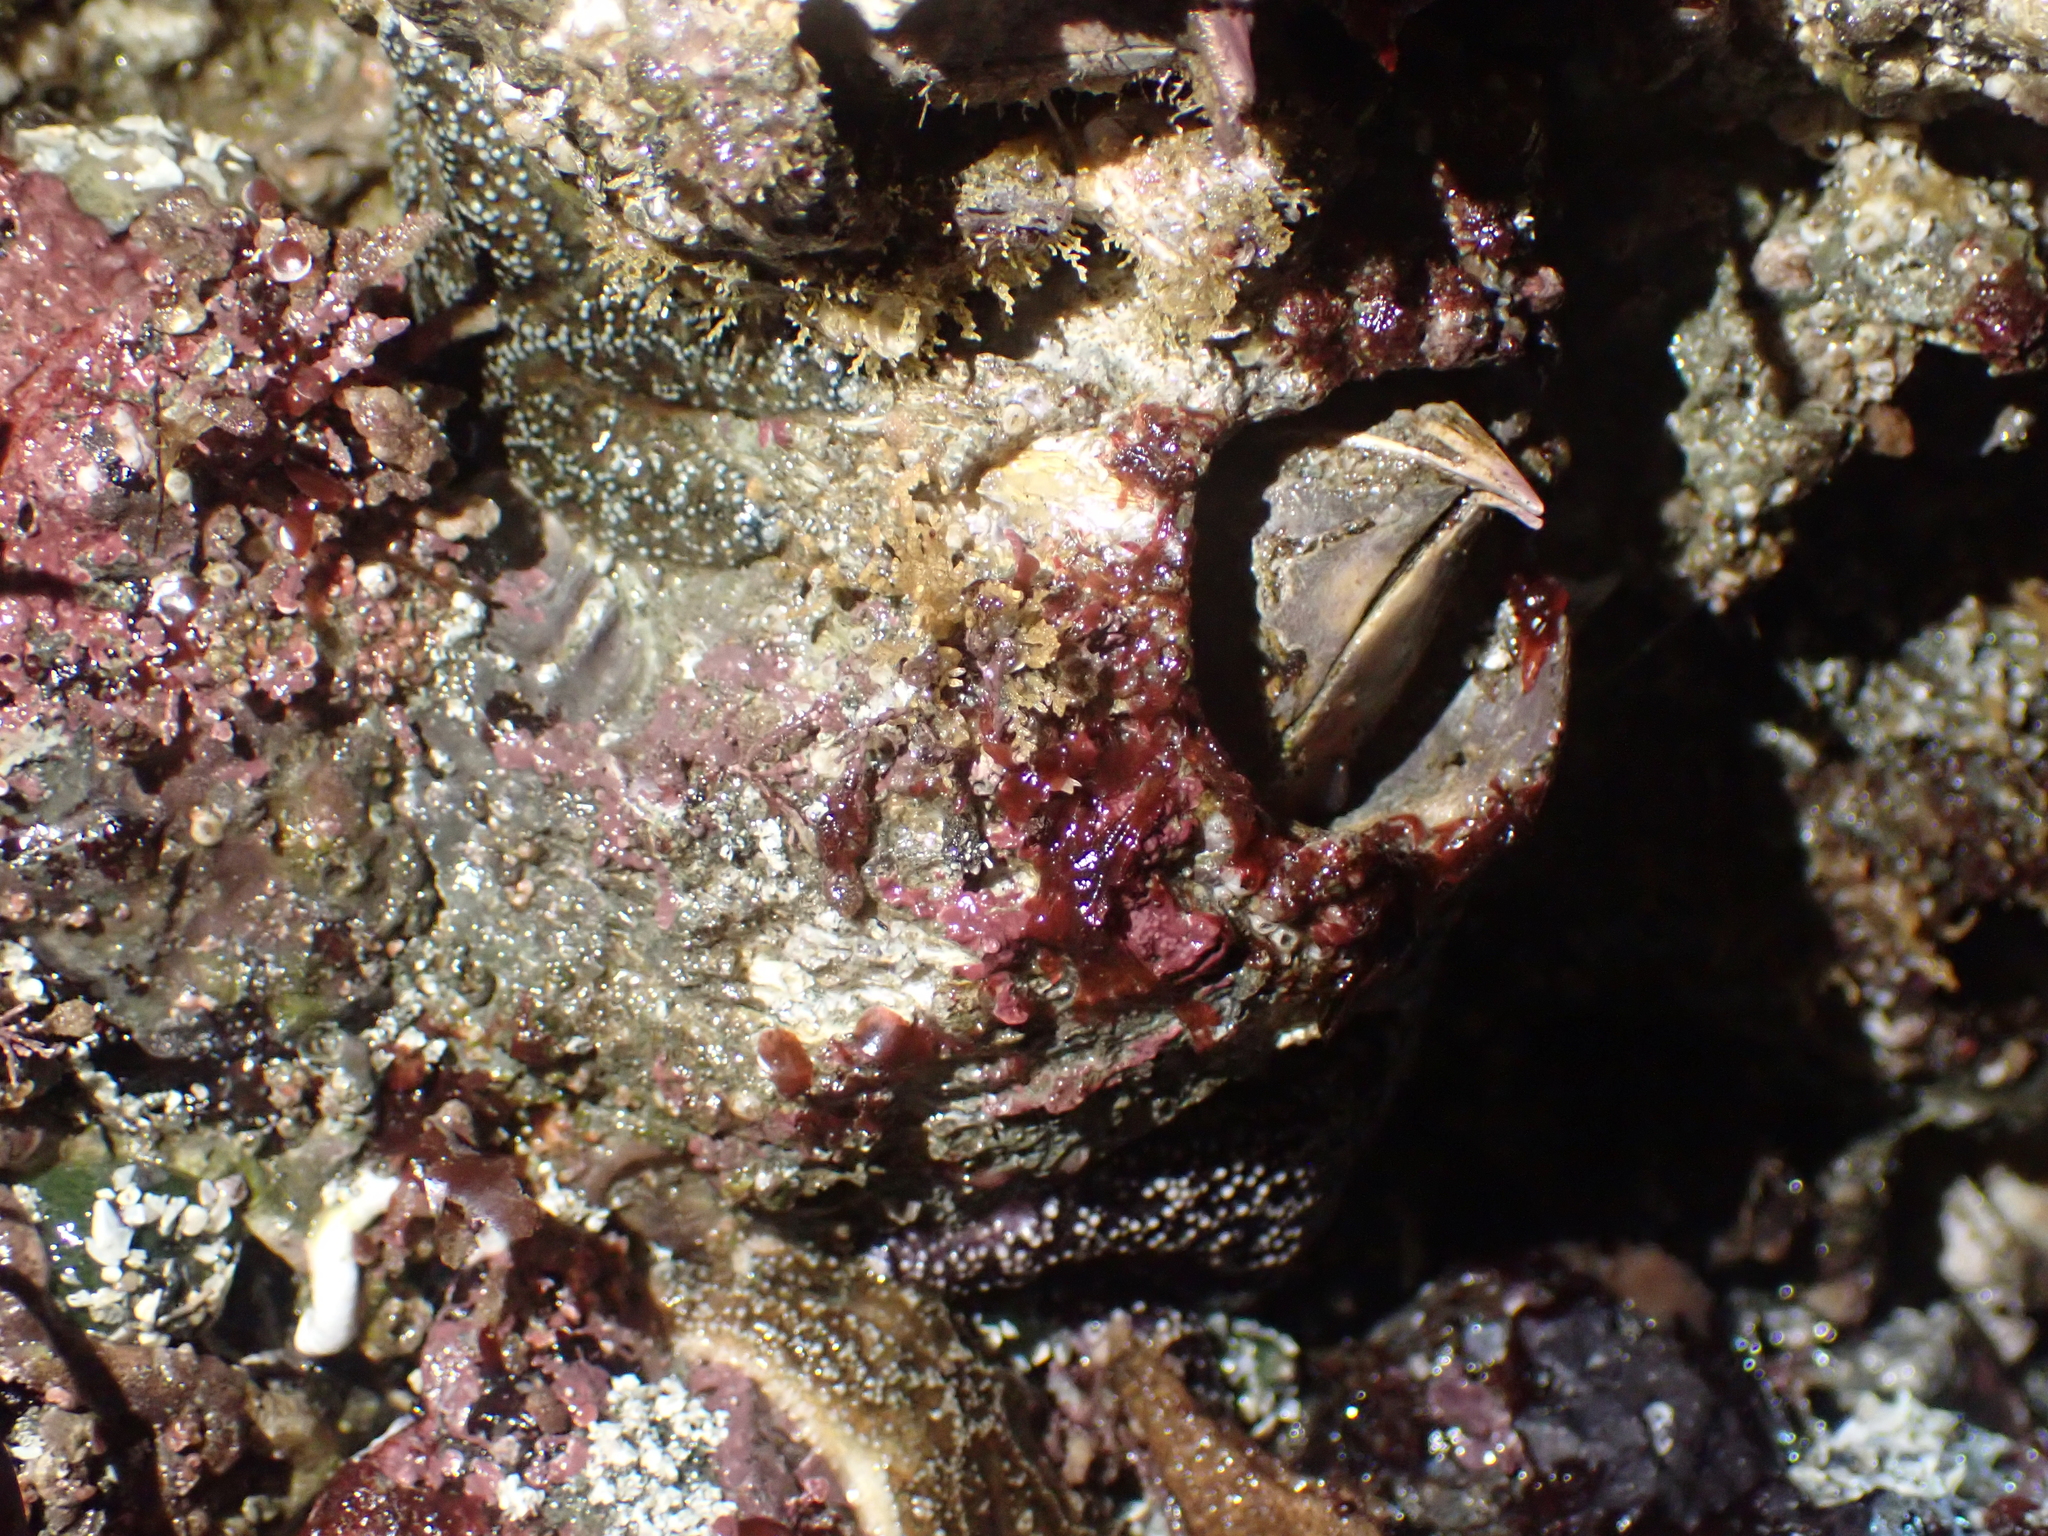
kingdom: Animalia
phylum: Arthropoda
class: Maxillopoda
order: Sessilia
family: Balanidae
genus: Balanus
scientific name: Balanus nubilus
